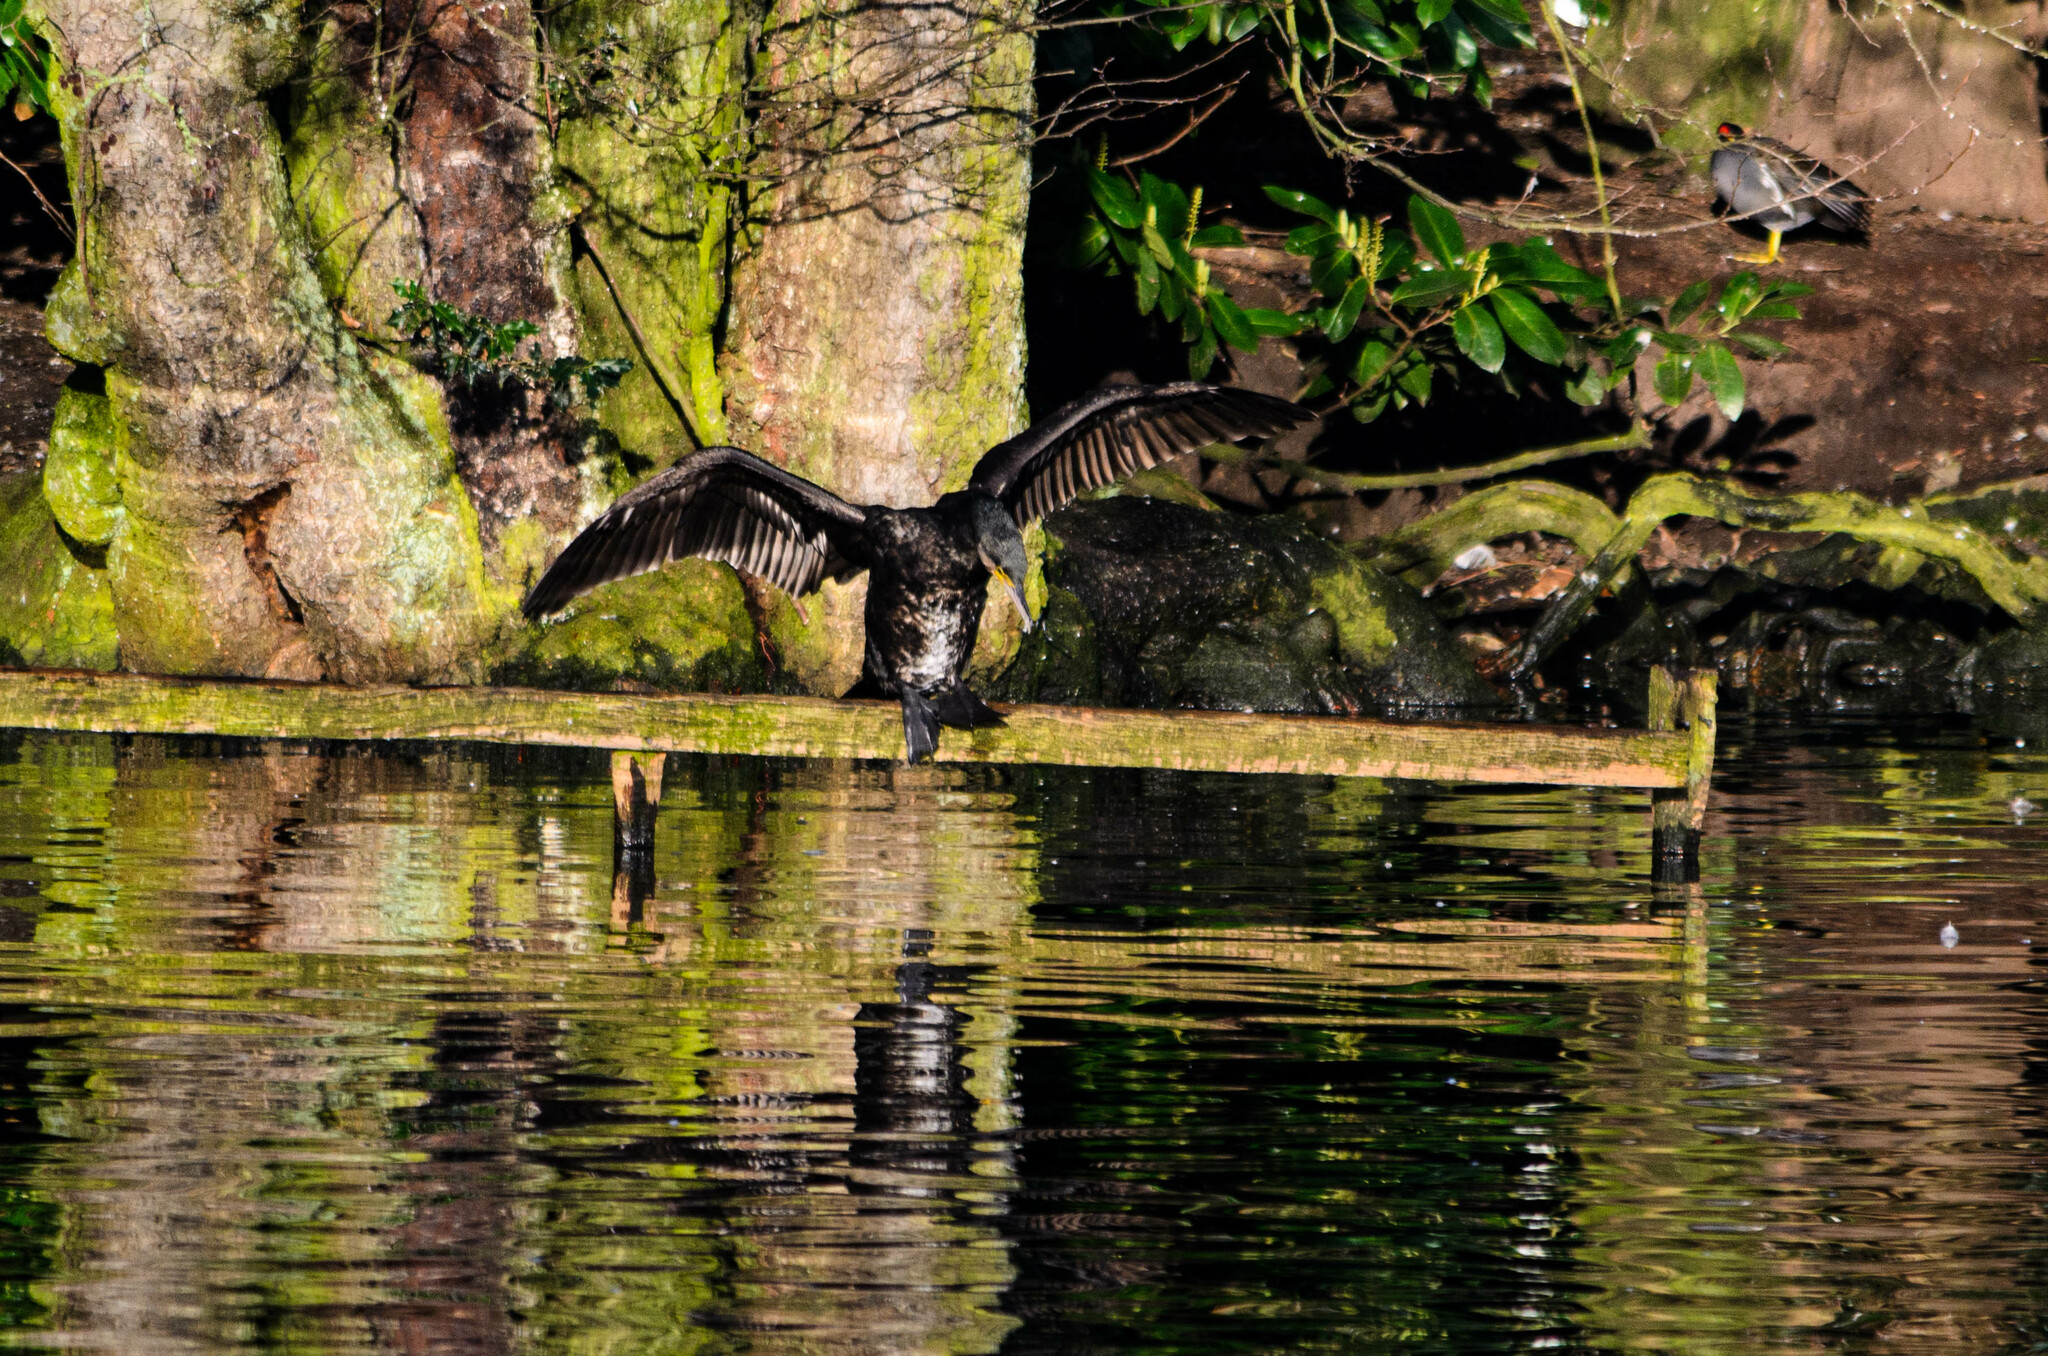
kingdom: Animalia
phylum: Chordata
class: Aves
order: Suliformes
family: Phalacrocoracidae
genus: Phalacrocorax
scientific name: Phalacrocorax carbo
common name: Great cormorant
